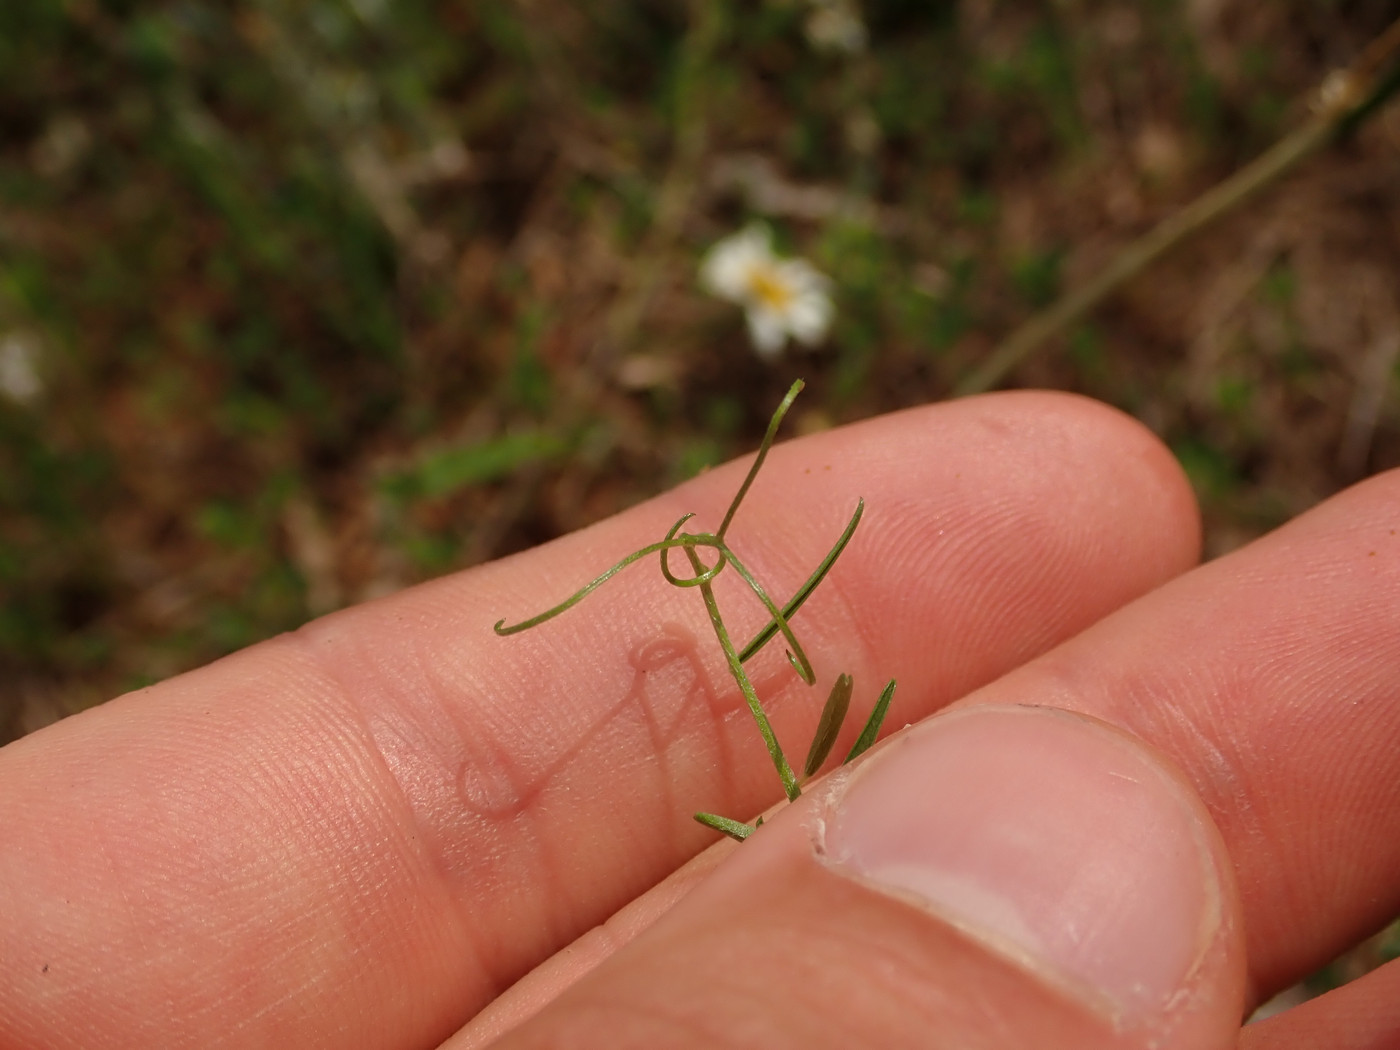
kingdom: Plantae
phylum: Tracheophyta
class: Magnoliopsida
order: Fabales
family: Fabaceae
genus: Vicia
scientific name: Vicia villosa
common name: Fodder vetch
